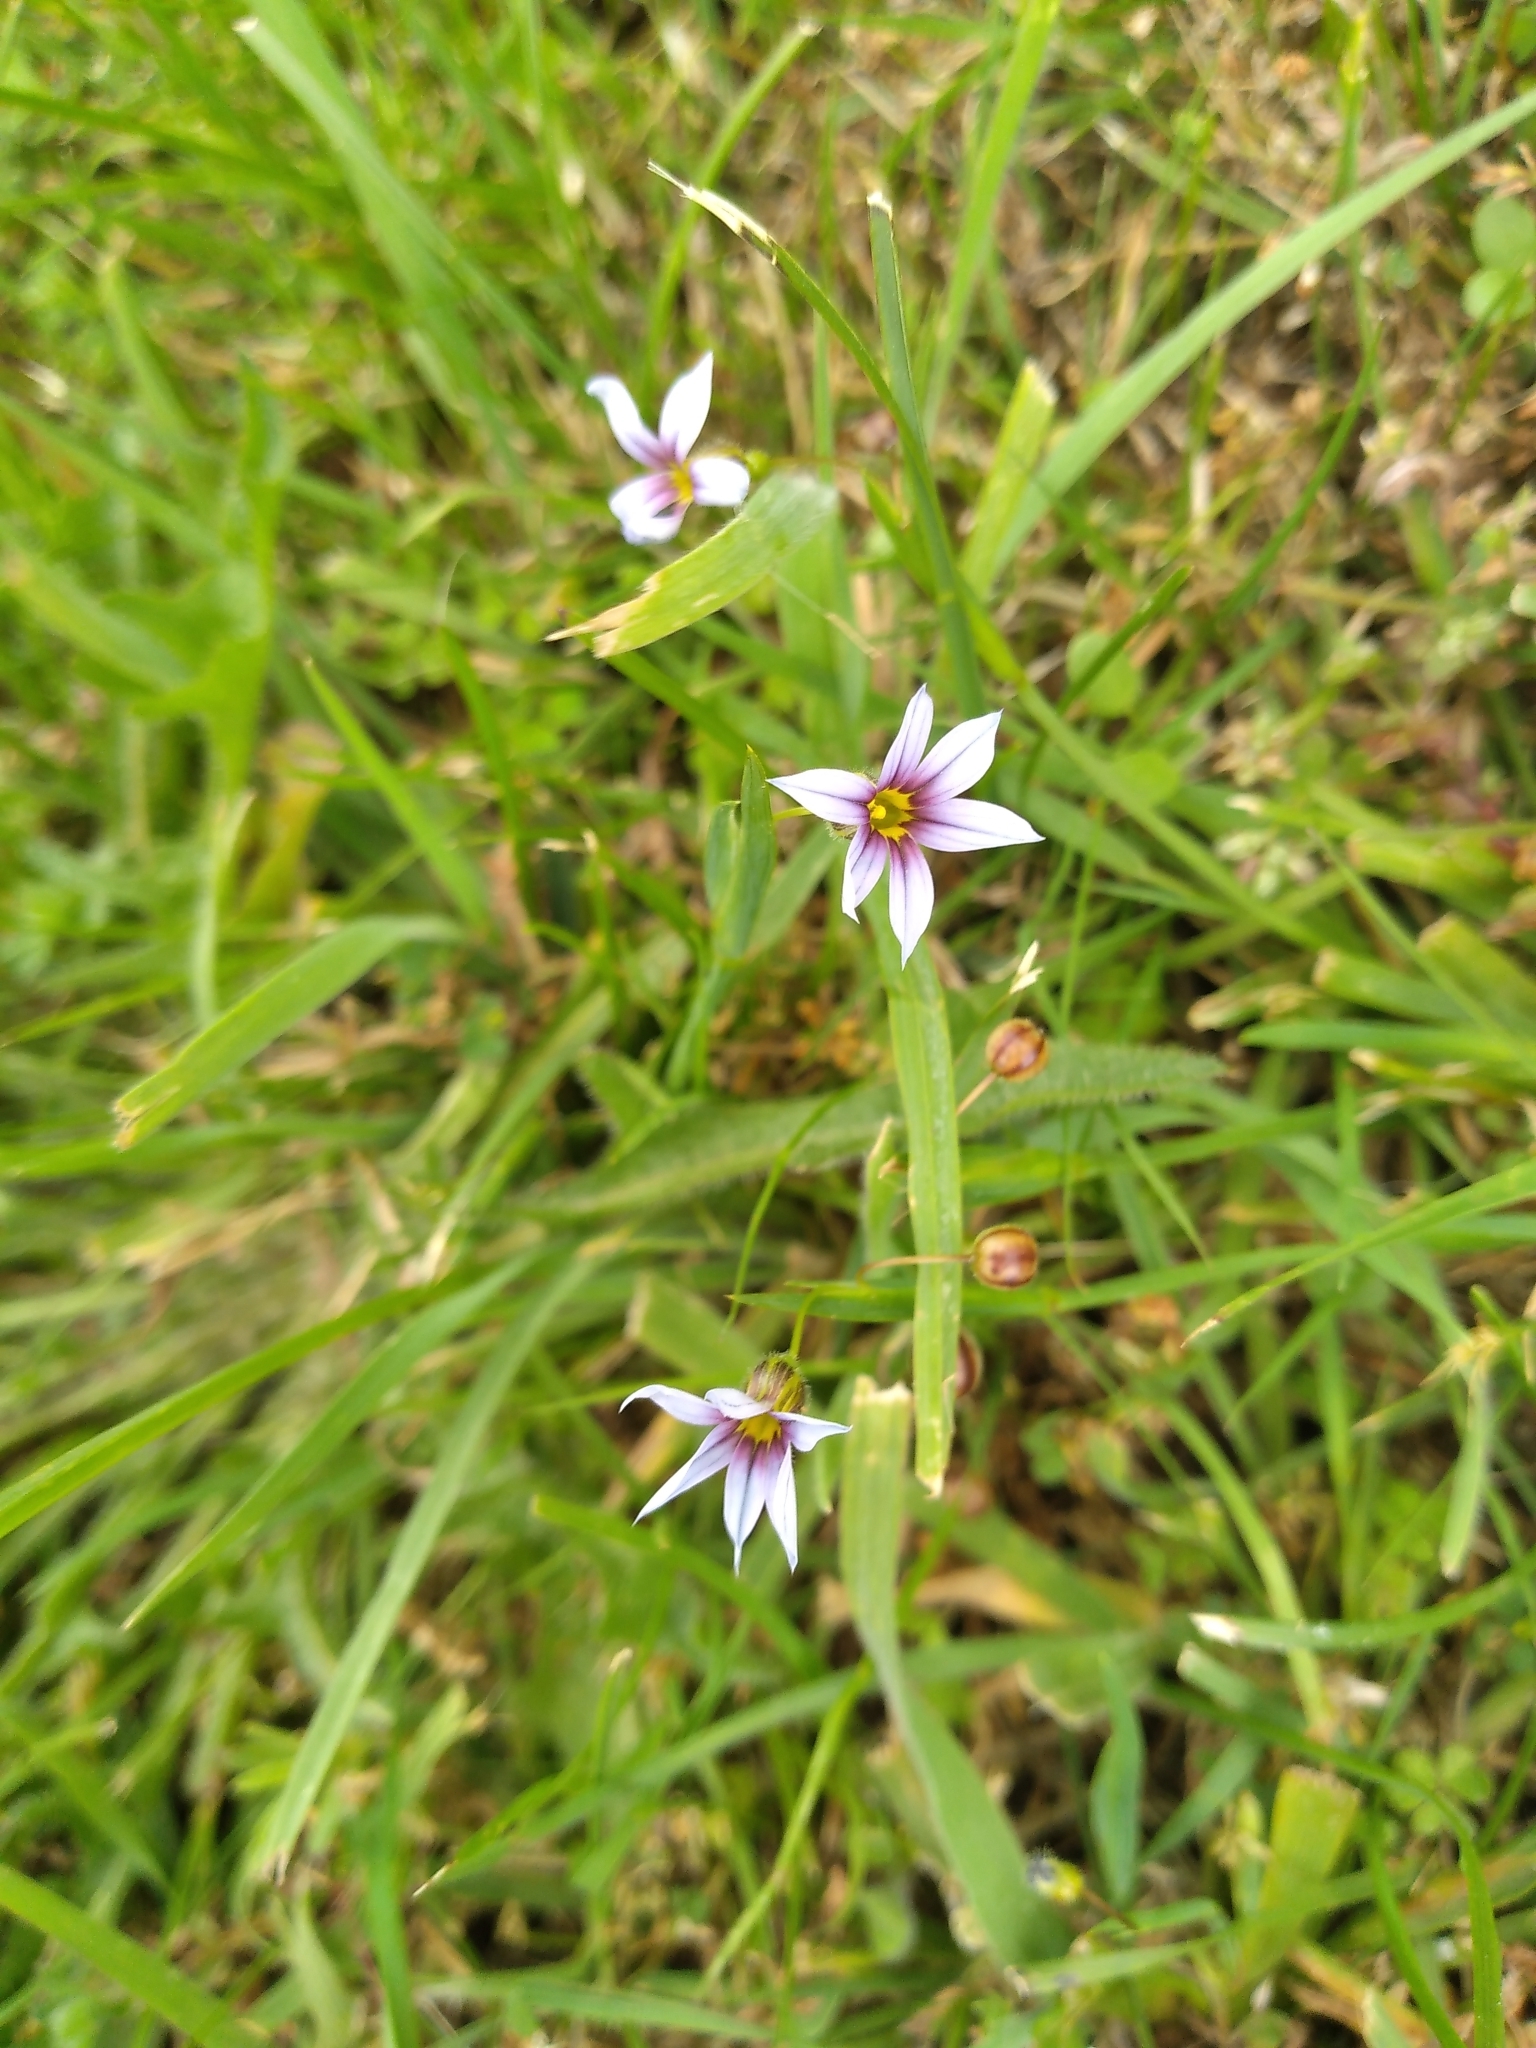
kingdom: Plantae
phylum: Tracheophyta
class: Liliopsida
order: Asparagales
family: Iridaceae
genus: Sisyrinchium
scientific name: Sisyrinchium micranthum
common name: Bermuda pigroot
